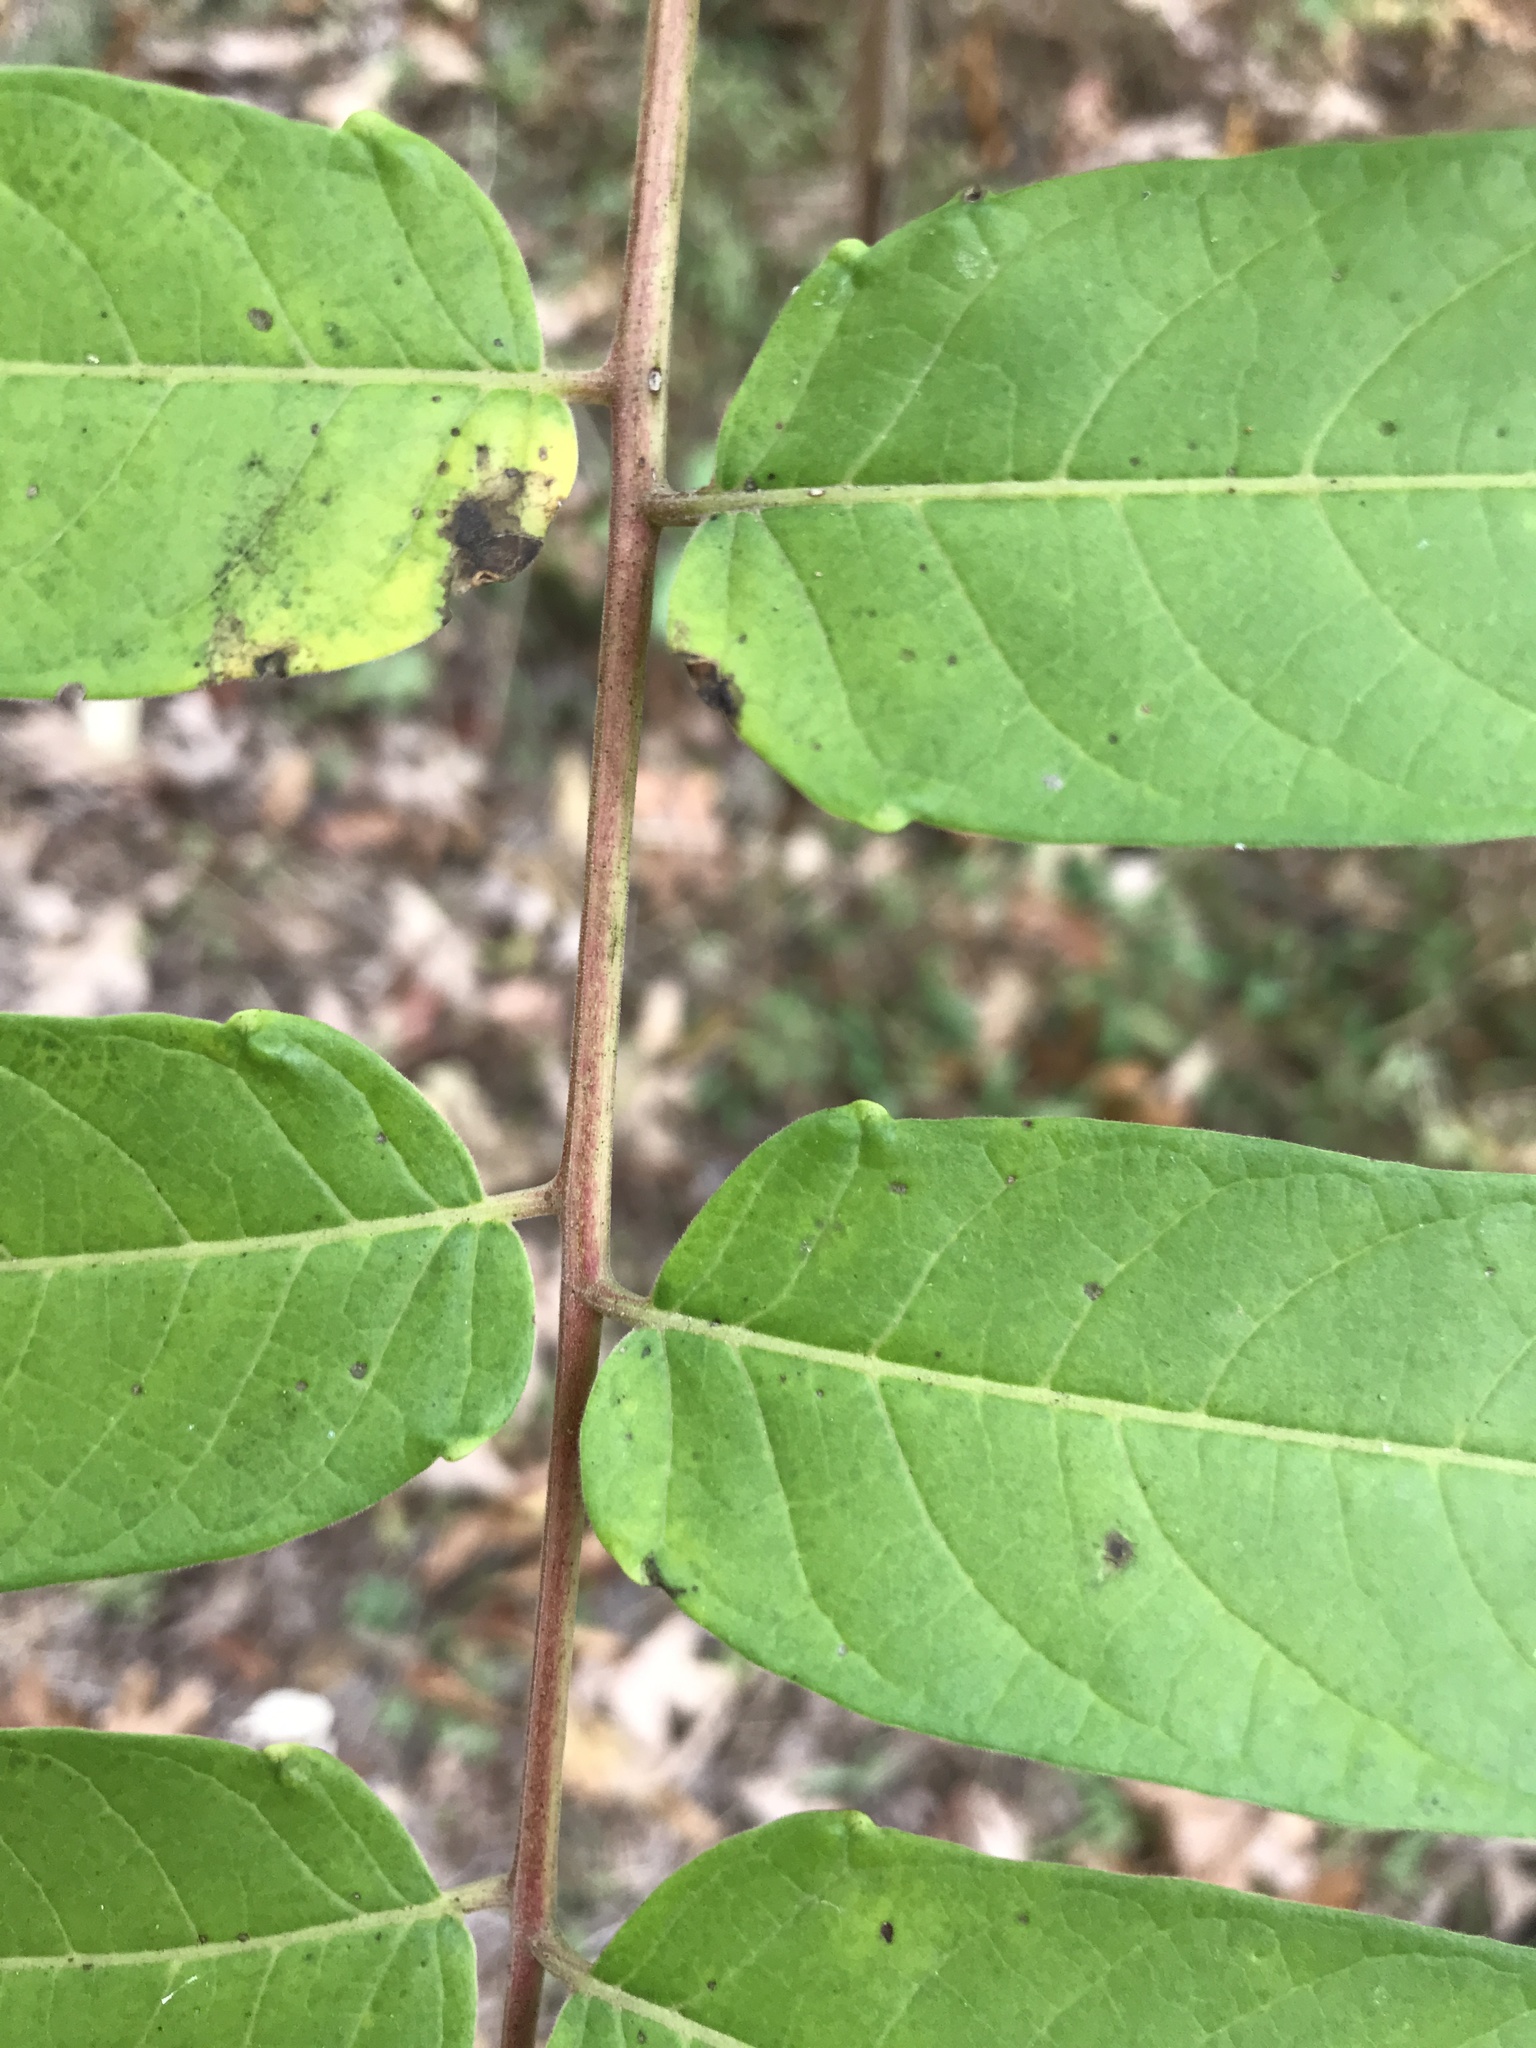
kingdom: Plantae
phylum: Tracheophyta
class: Magnoliopsida
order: Sapindales
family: Simaroubaceae
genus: Ailanthus
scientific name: Ailanthus altissima
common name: Tree-of-heaven
